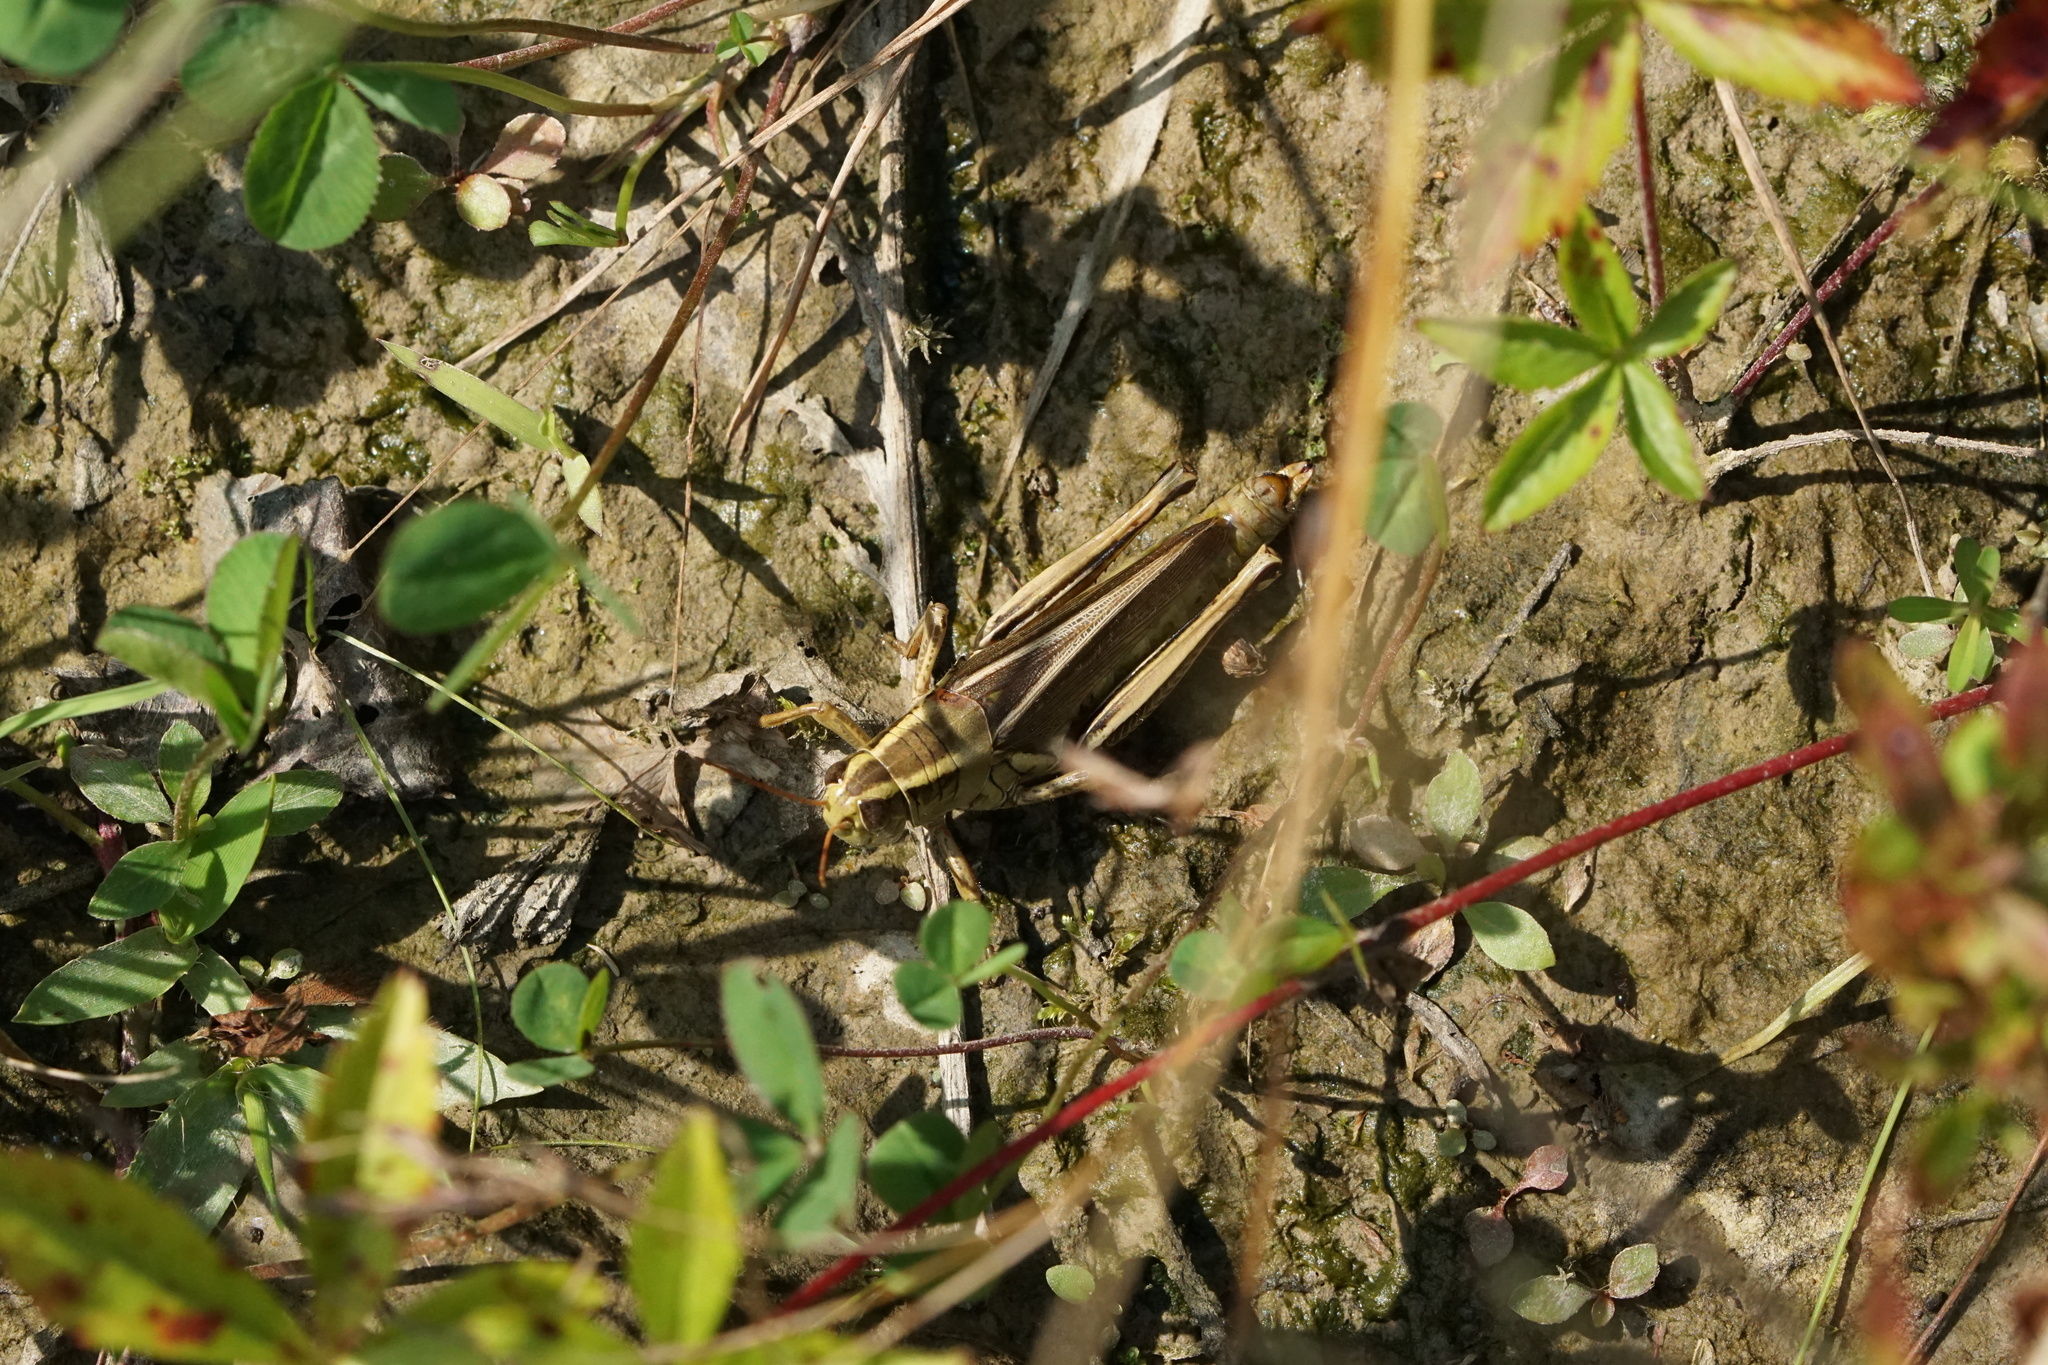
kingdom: Animalia
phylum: Arthropoda
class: Insecta
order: Orthoptera
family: Acrididae
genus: Melanoplus
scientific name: Melanoplus bivittatus
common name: Two-striped grasshopper
